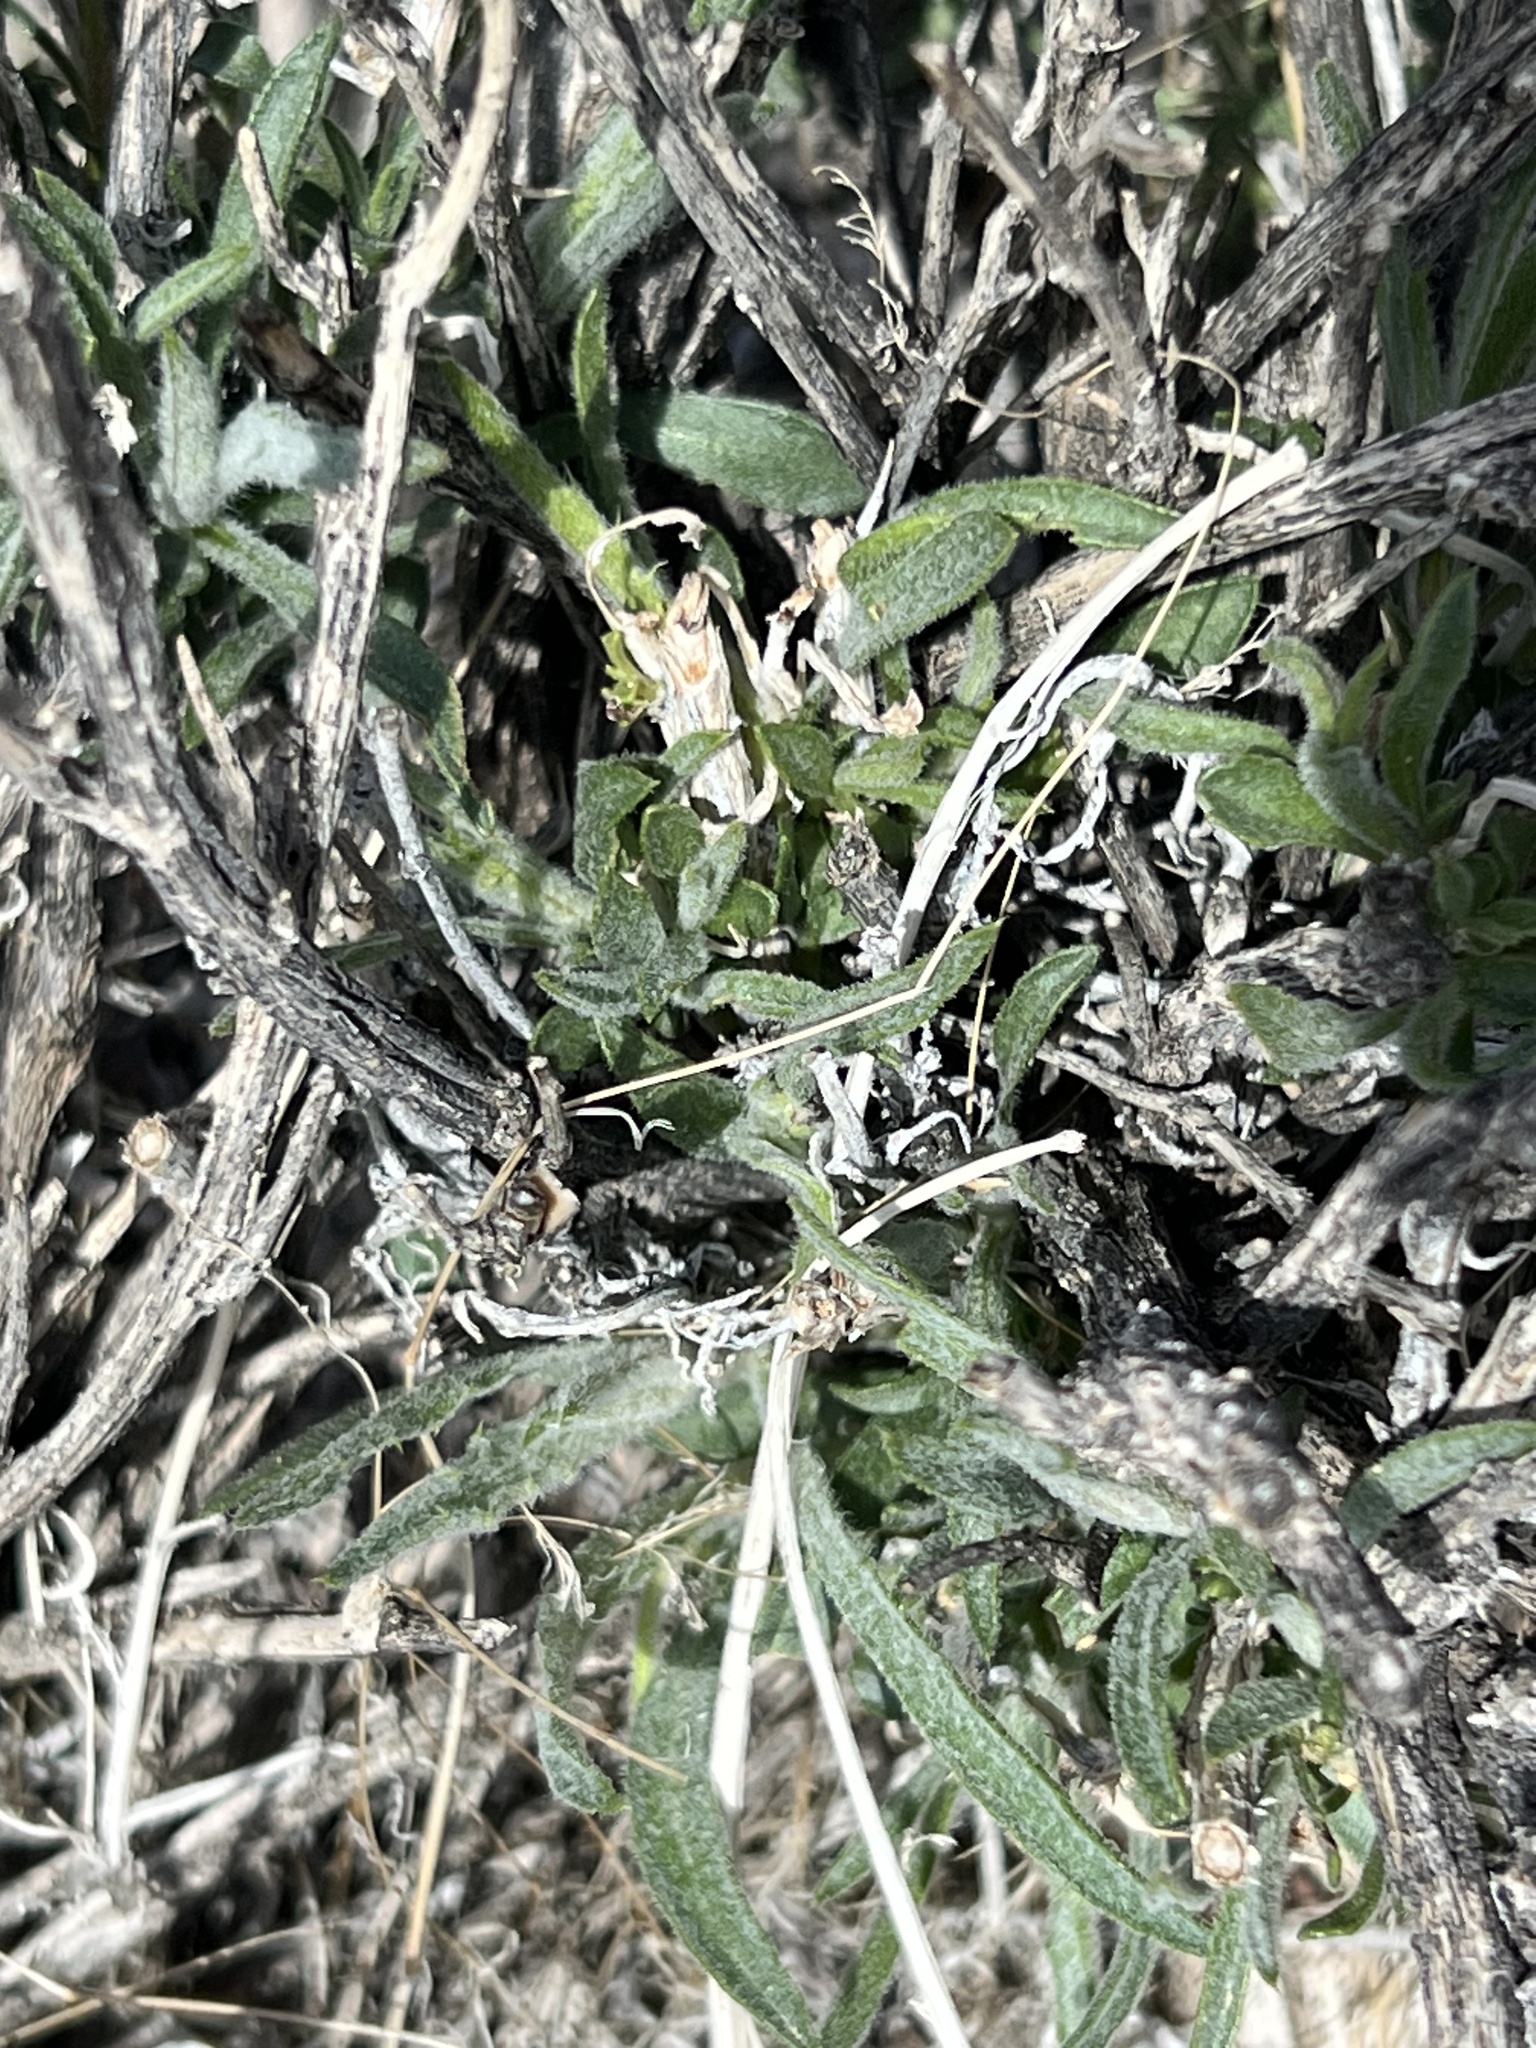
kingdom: Plantae
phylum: Tracheophyta
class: Magnoliopsida
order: Asterales
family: Asteraceae
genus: Xylorhiza
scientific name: Xylorhiza tortifolia
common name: Hurt-leaf woody-aster
